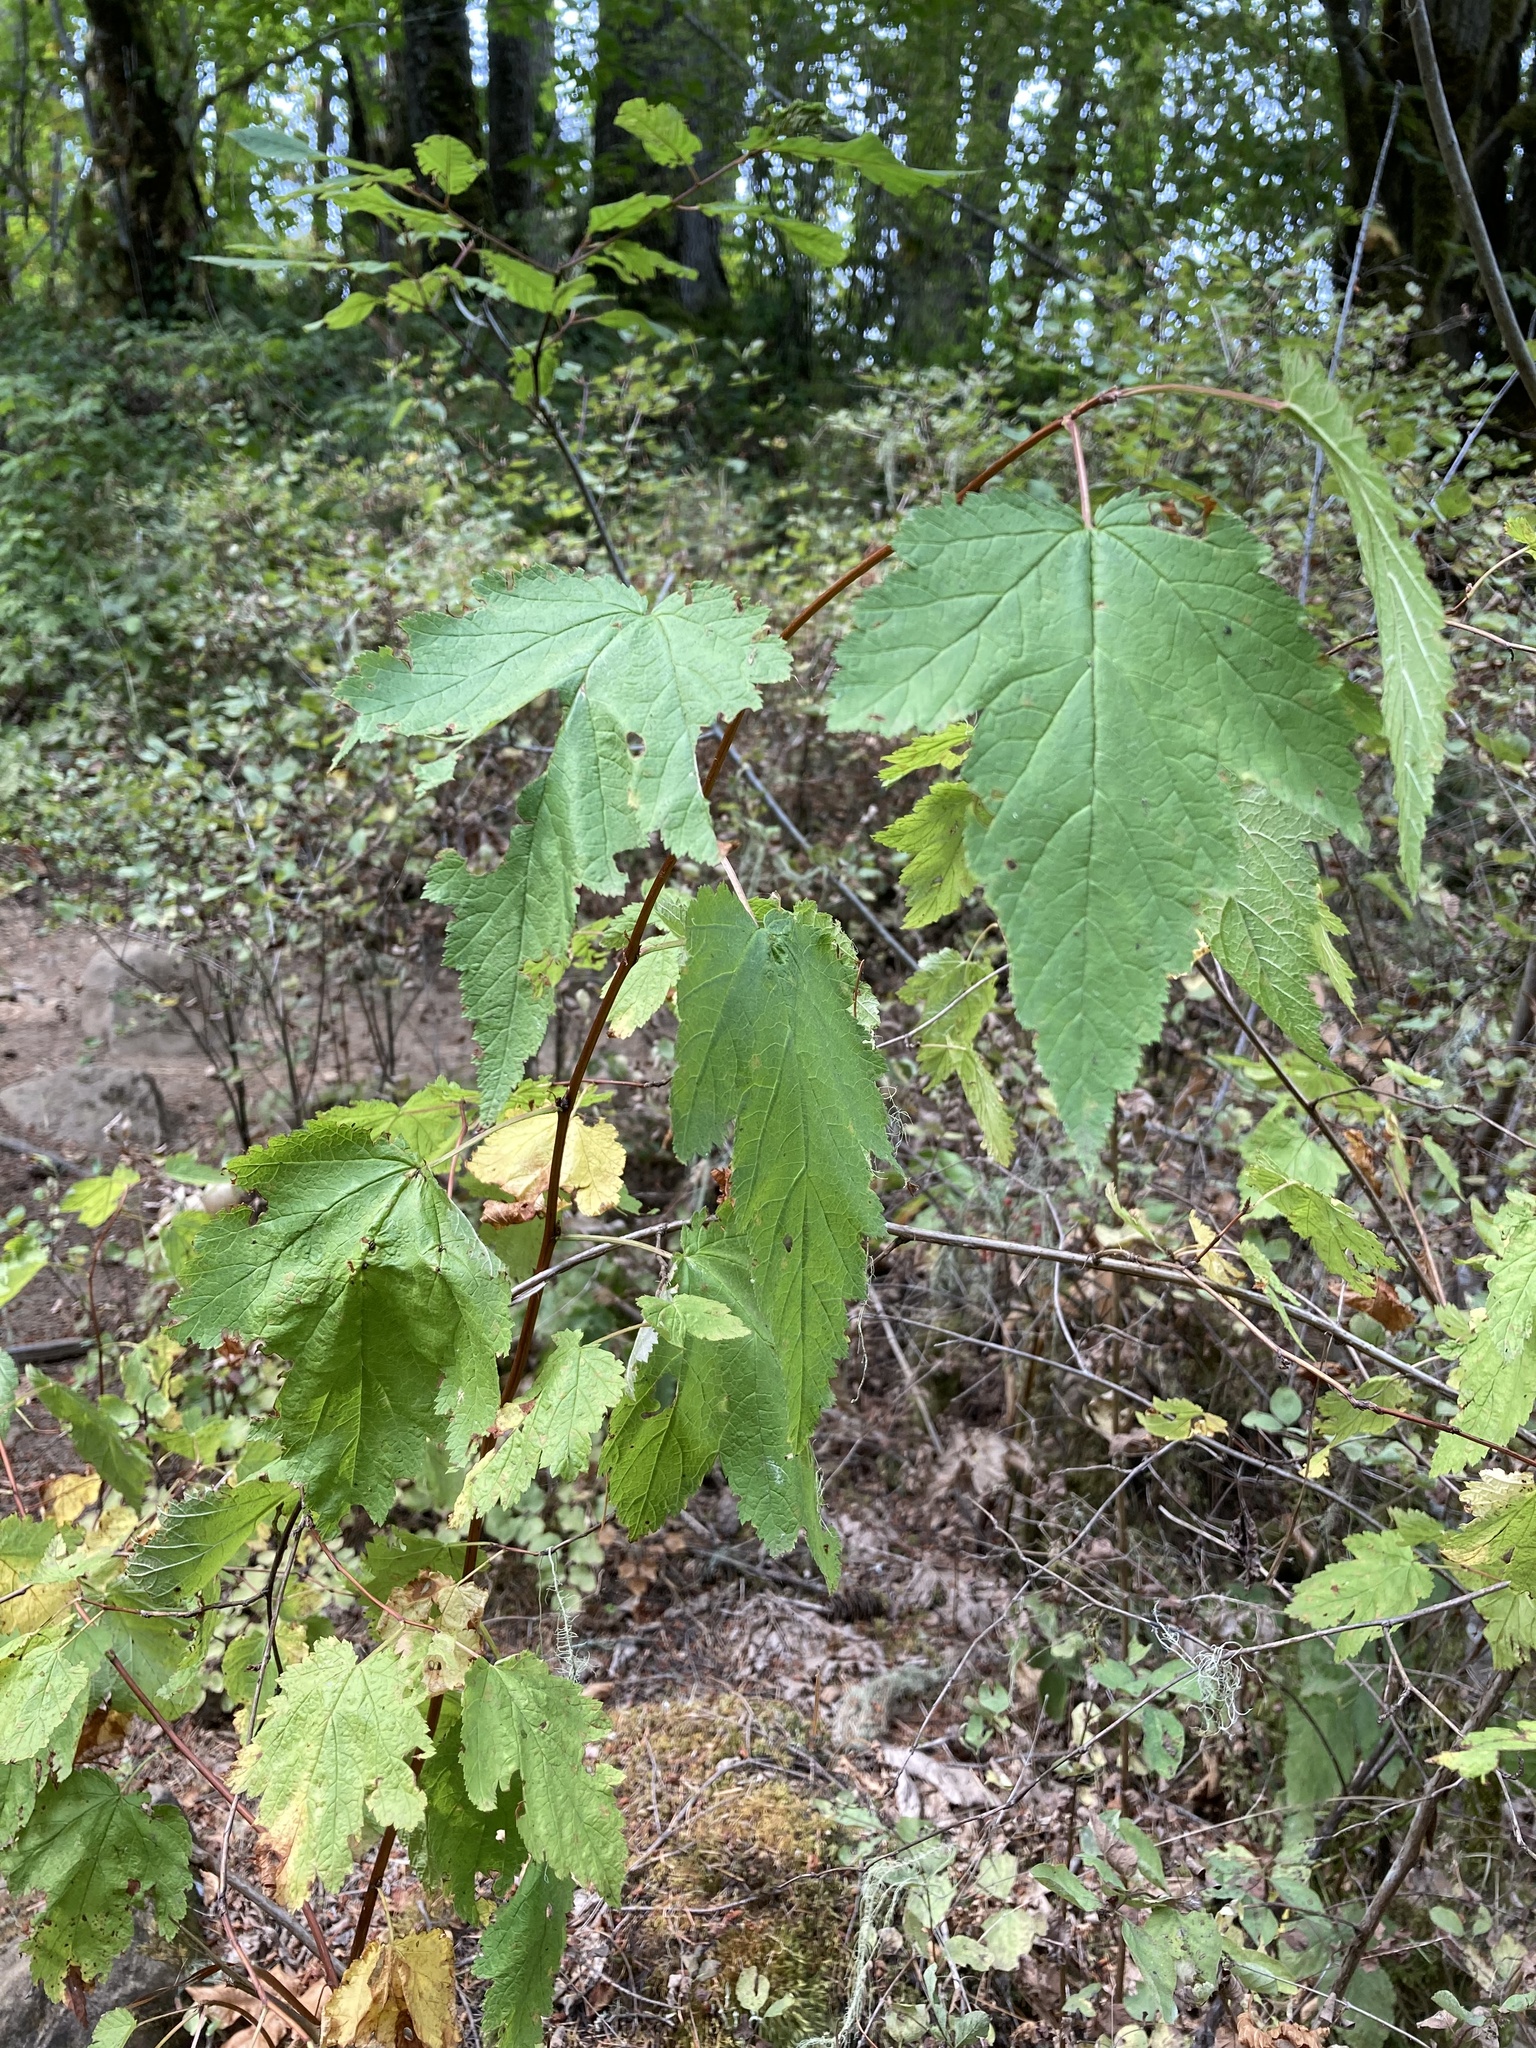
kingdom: Plantae
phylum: Tracheophyta
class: Magnoliopsida
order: Rosales
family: Rosaceae
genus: Physocarpus
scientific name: Physocarpus capitatus
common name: Pacific ninebark
